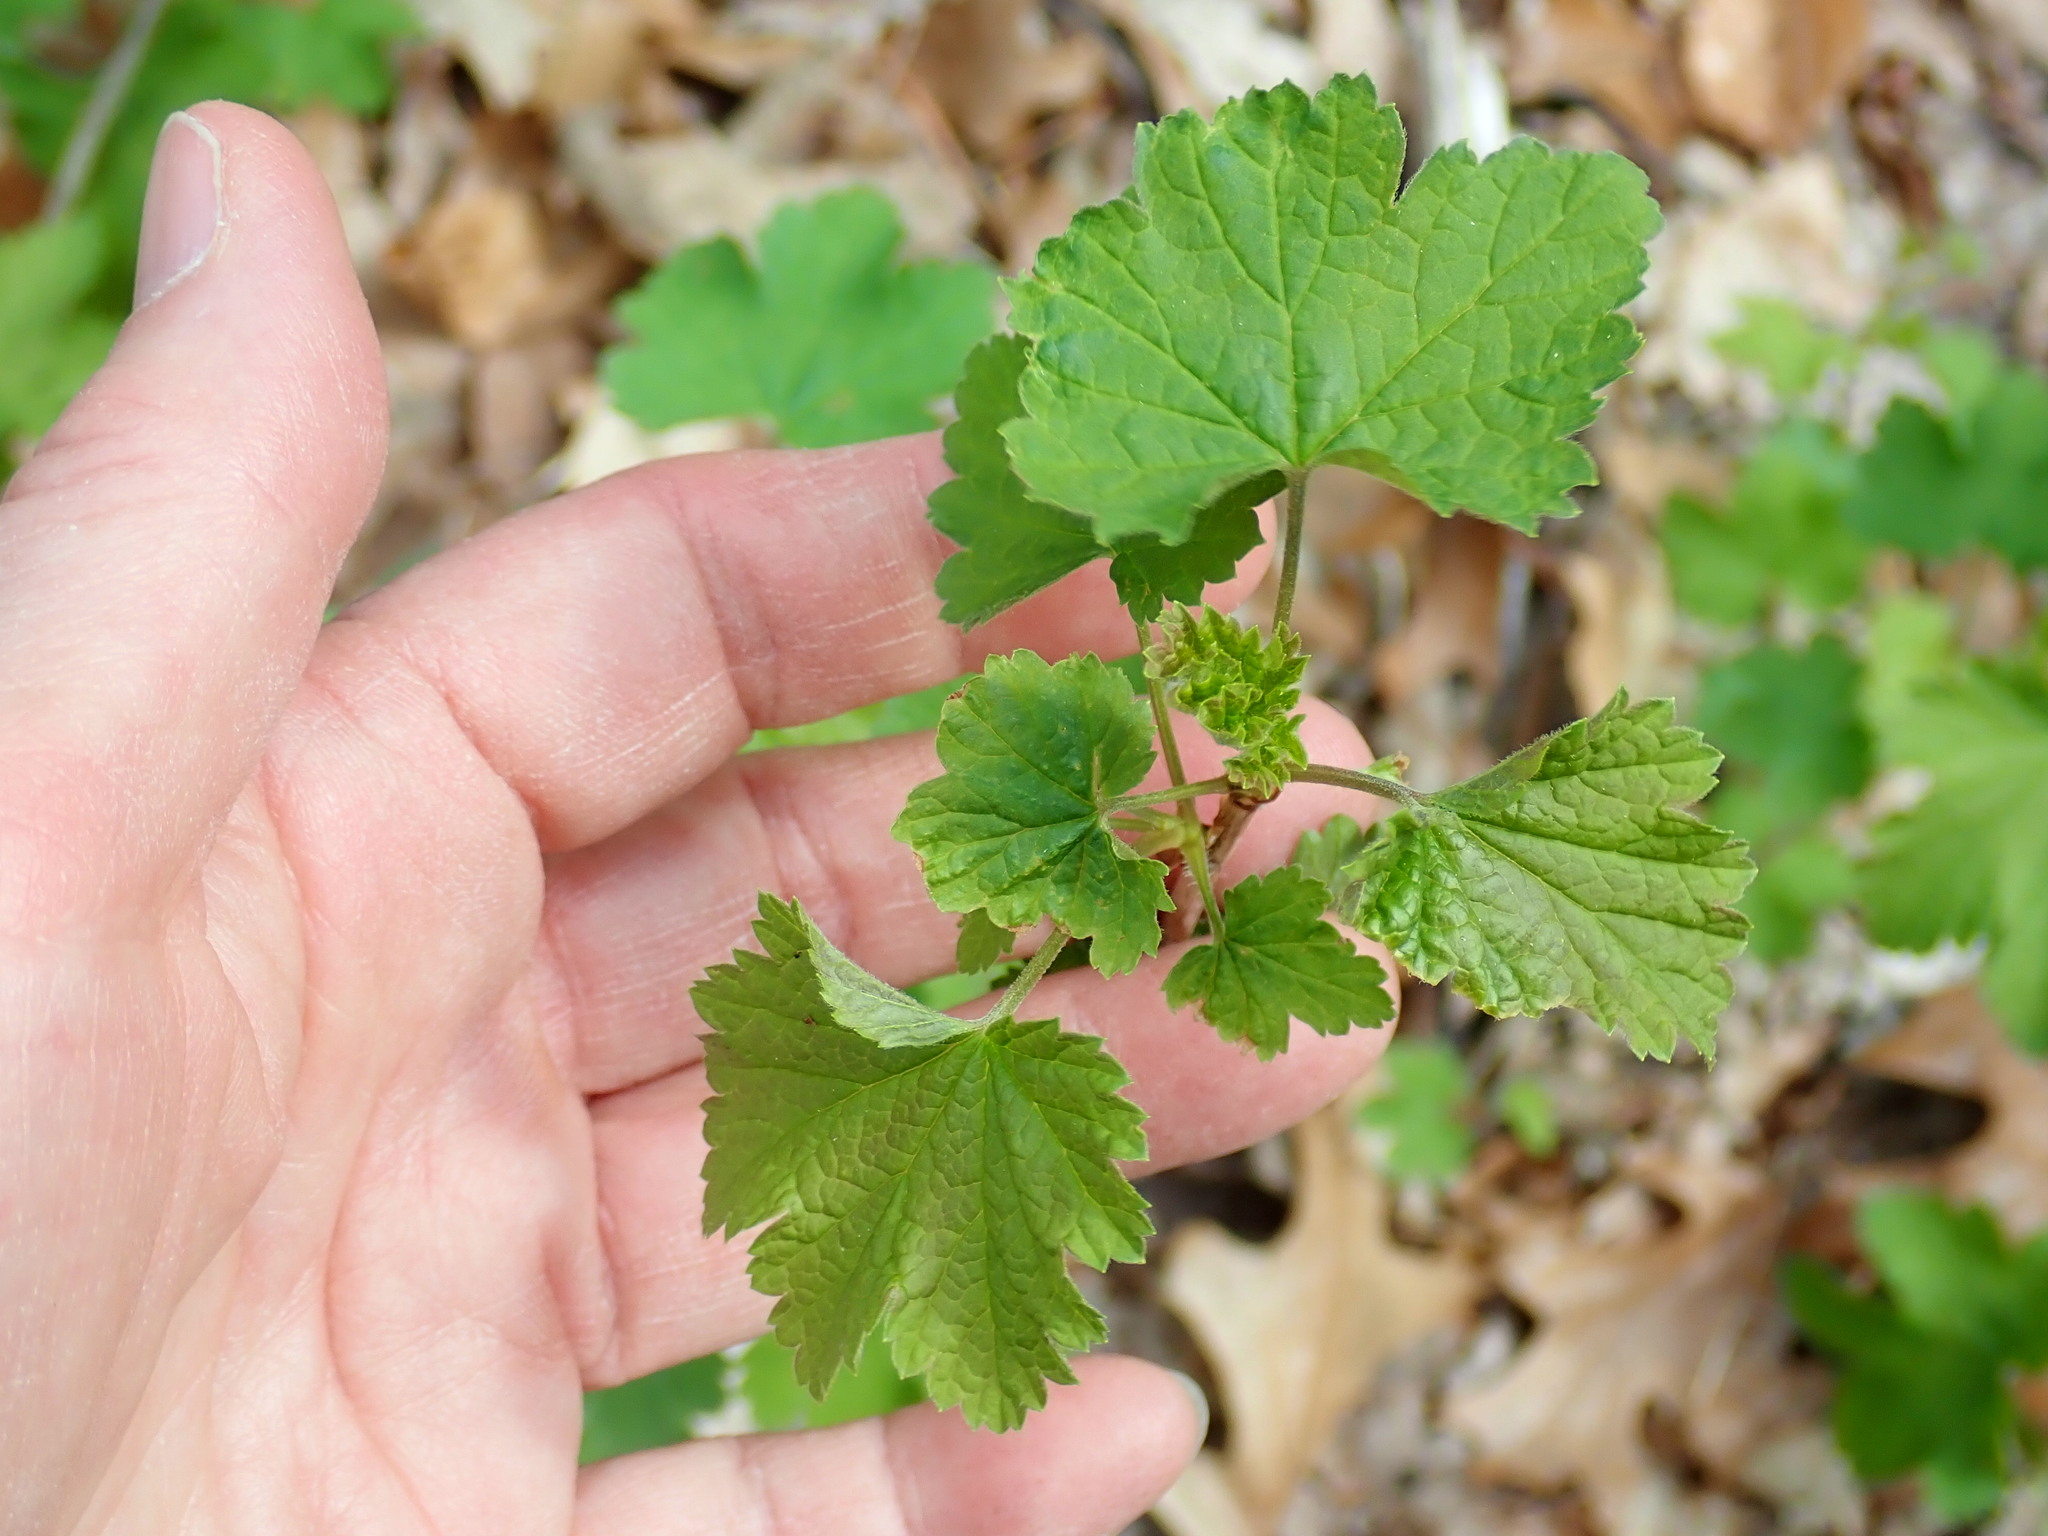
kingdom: Plantae
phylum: Tracheophyta
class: Magnoliopsida
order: Saxifragales
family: Grossulariaceae
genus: Ribes
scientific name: Ribes
